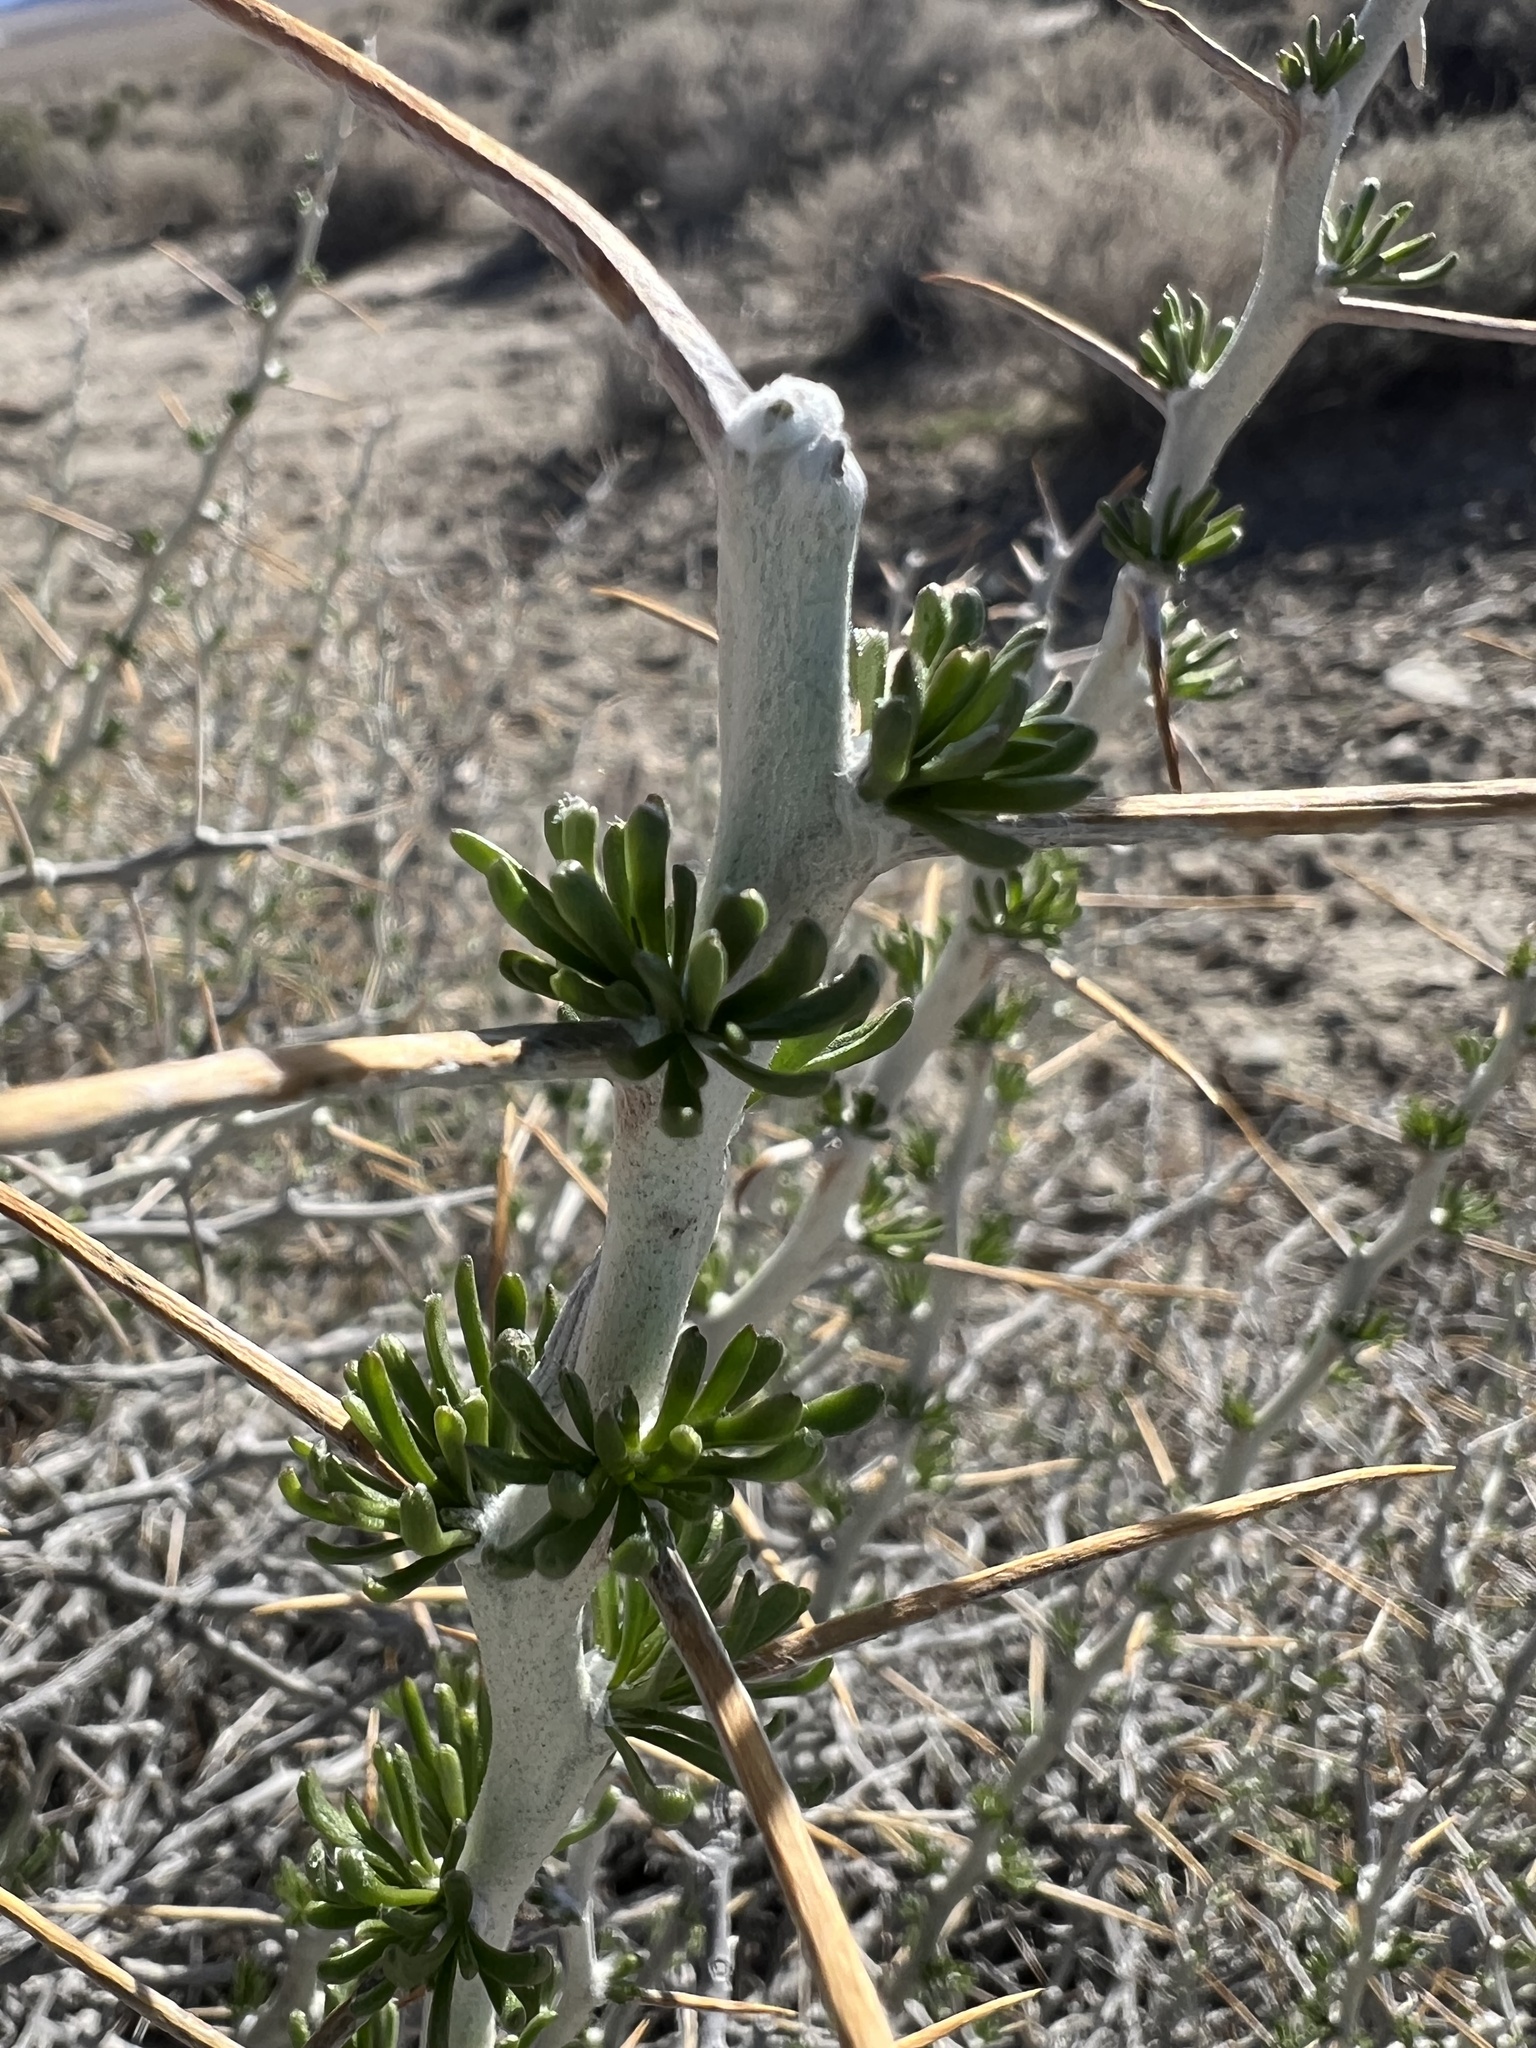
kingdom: Plantae
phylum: Tracheophyta
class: Magnoliopsida
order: Asterales
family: Asteraceae
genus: Tetradymia
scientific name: Tetradymia axillaris
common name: Long-spine horsebrush
